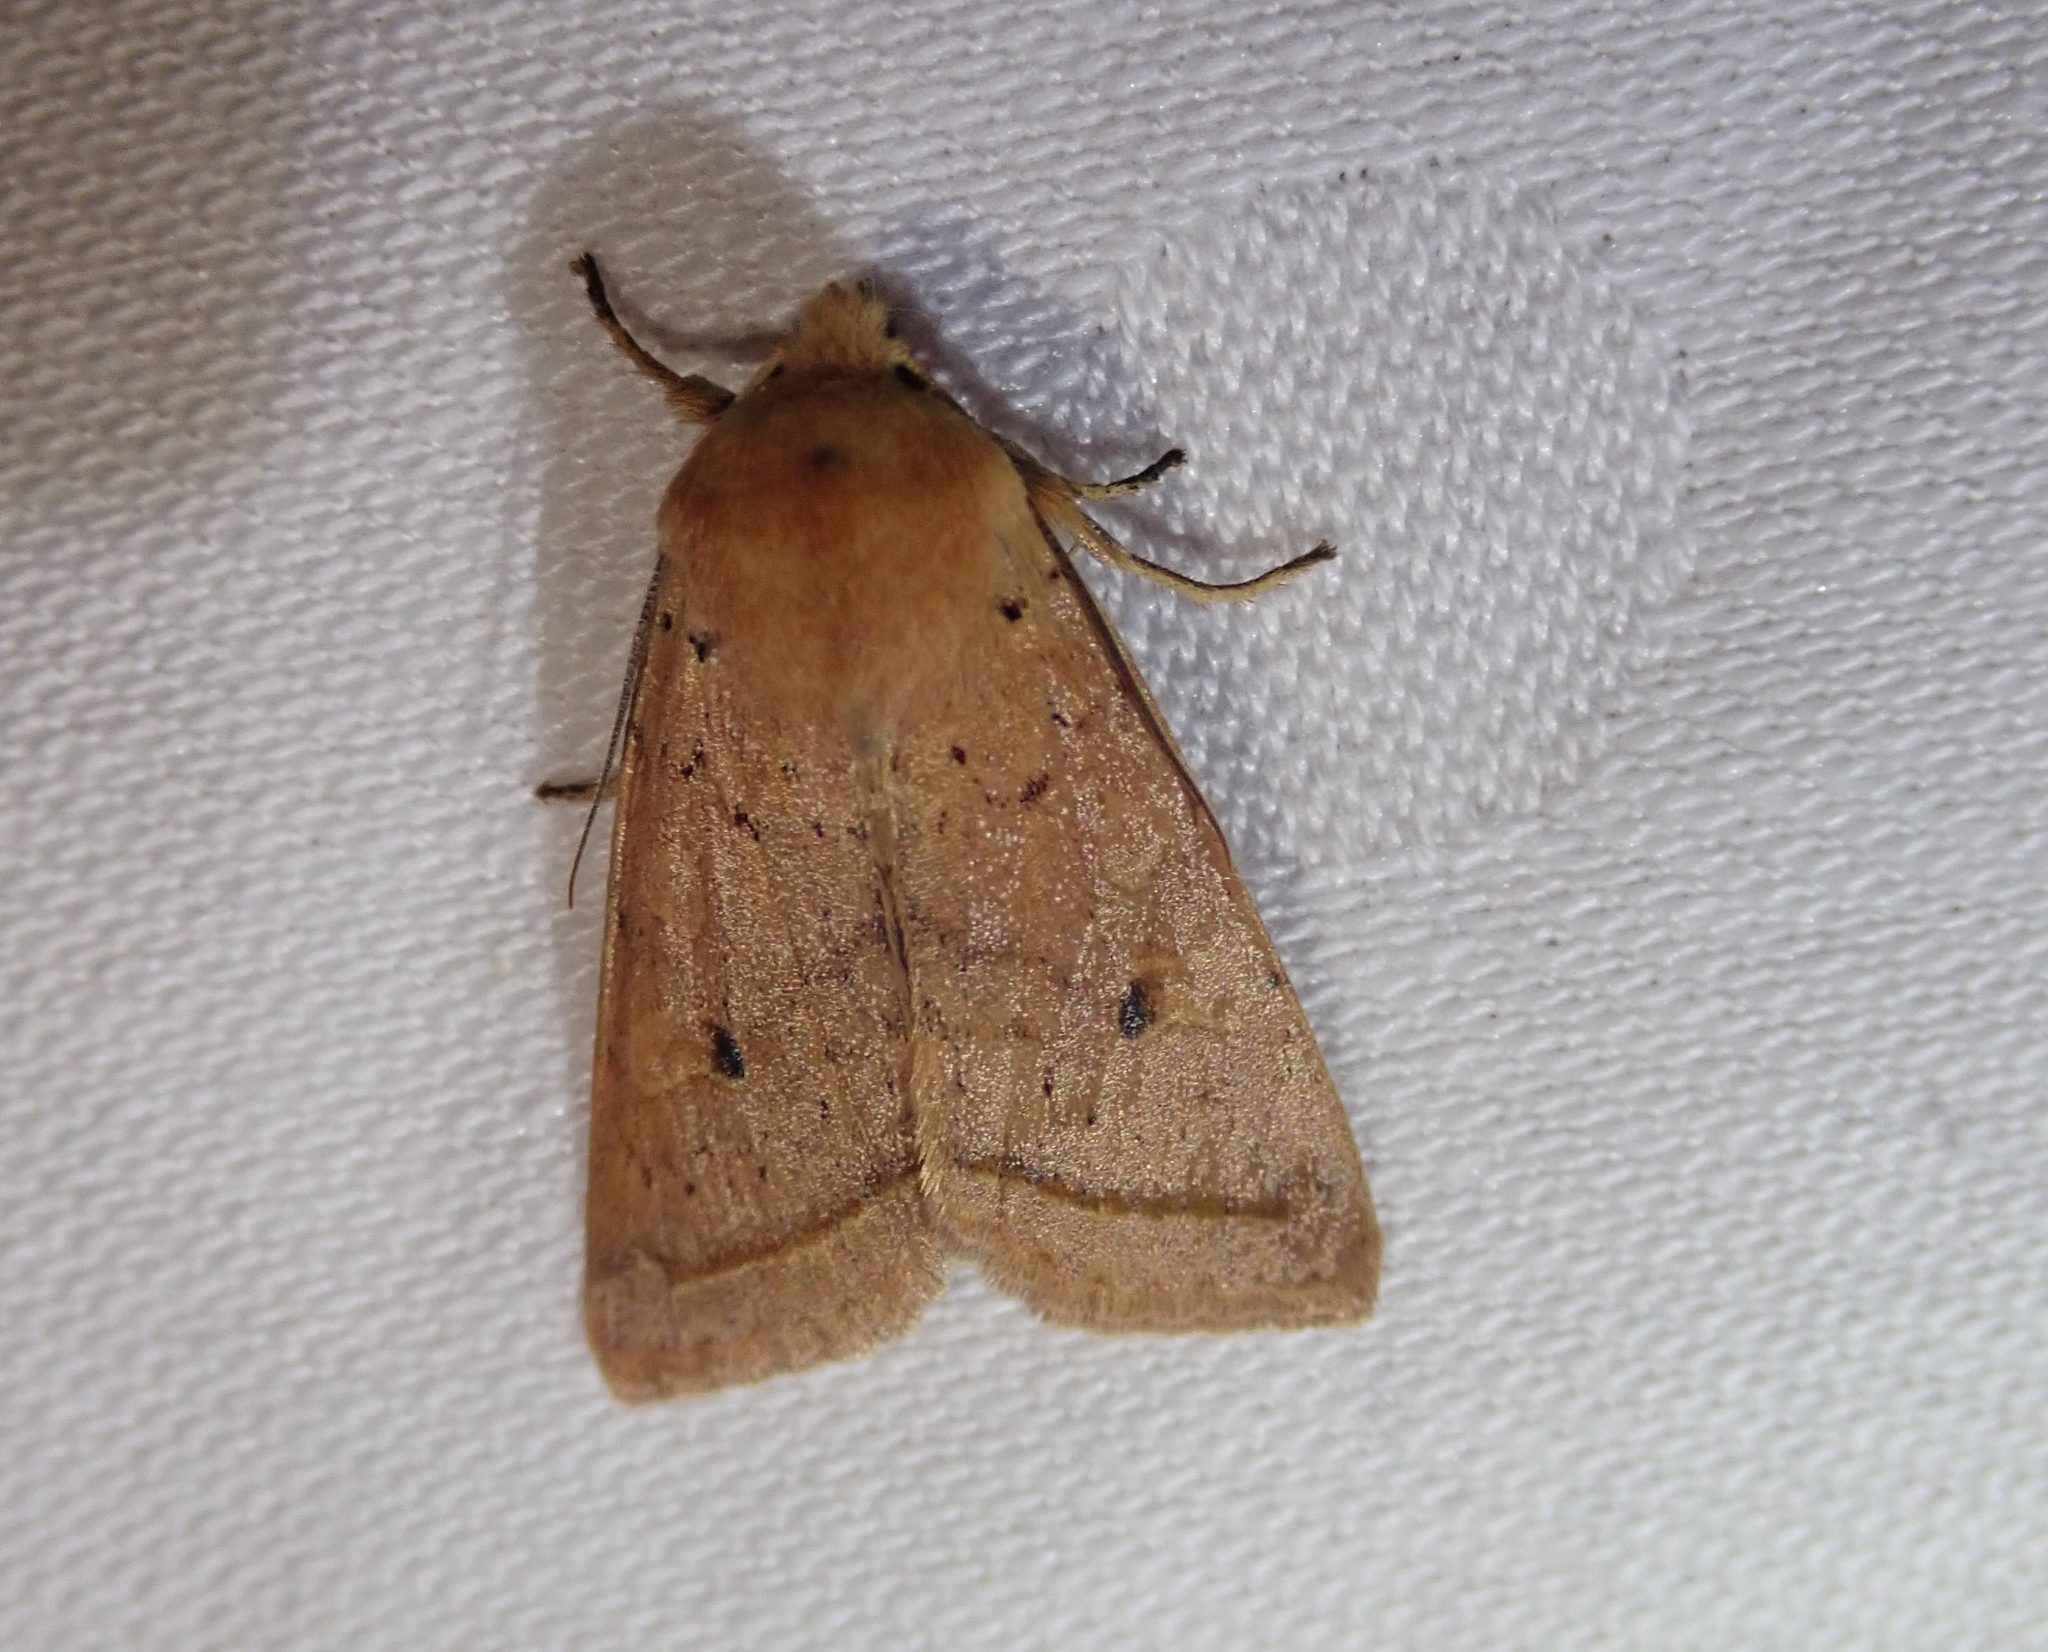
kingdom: Animalia
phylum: Arthropoda
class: Insecta
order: Lepidoptera
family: Noctuidae
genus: Agrochola
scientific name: Agrochola macilenta
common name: Yellow-line quaker
